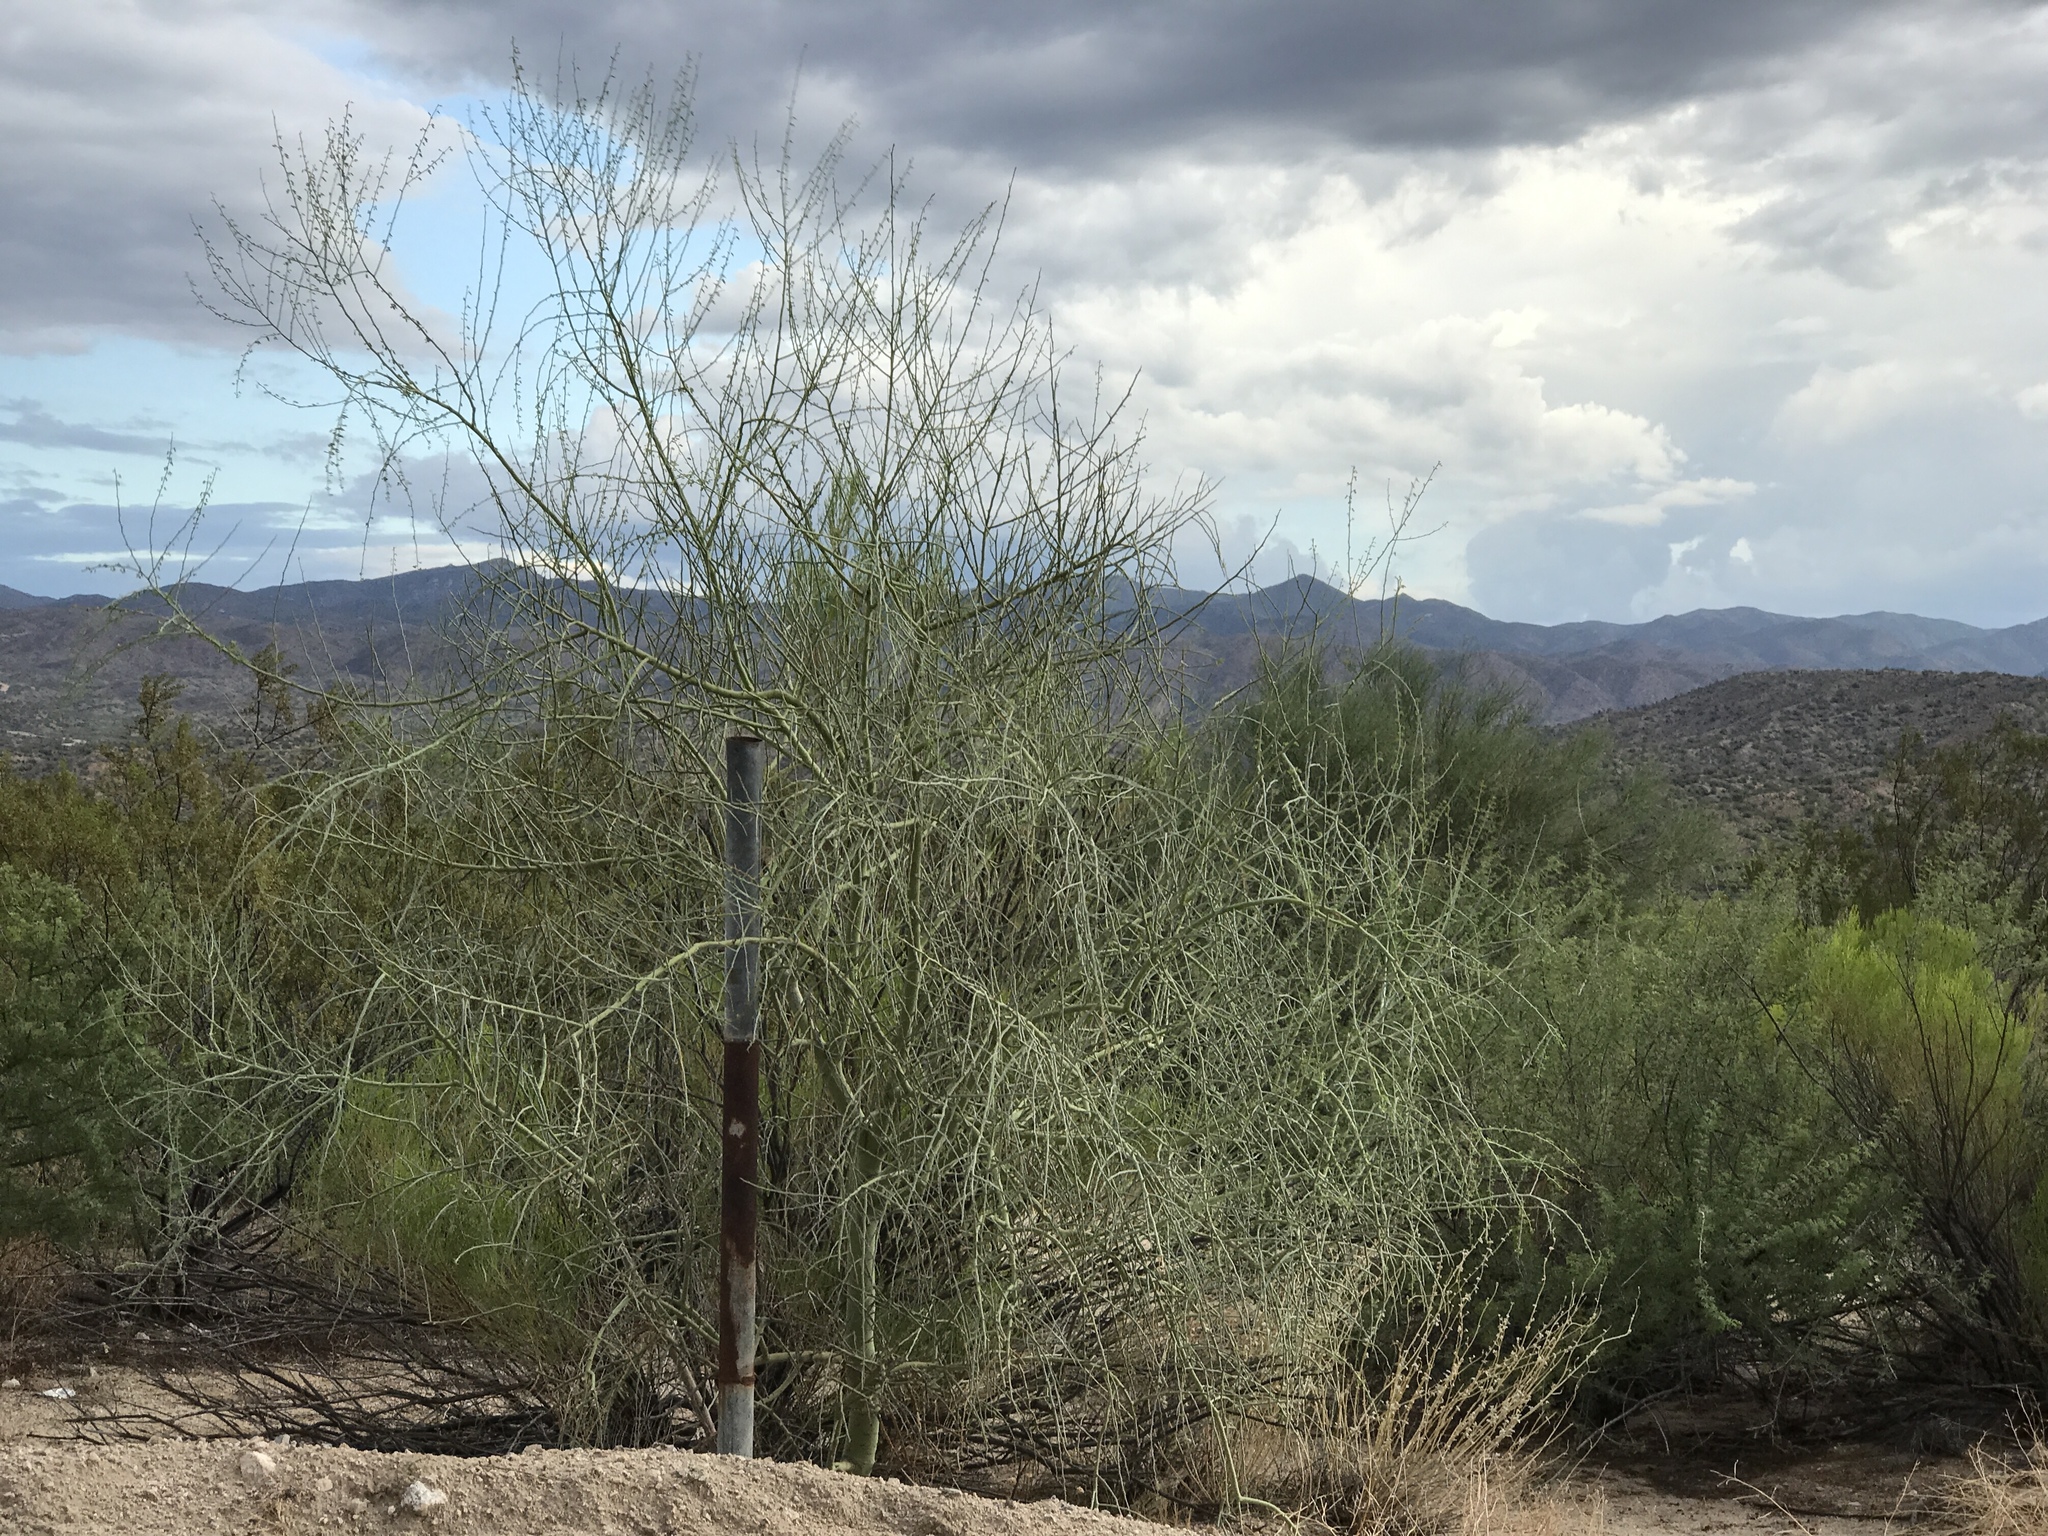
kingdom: Plantae
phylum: Tracheophyta
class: Magnoliopsida
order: Fabales
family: Fabaceae
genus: Parkinsonia
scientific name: Parkinsonia florida
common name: Blue paloverde
